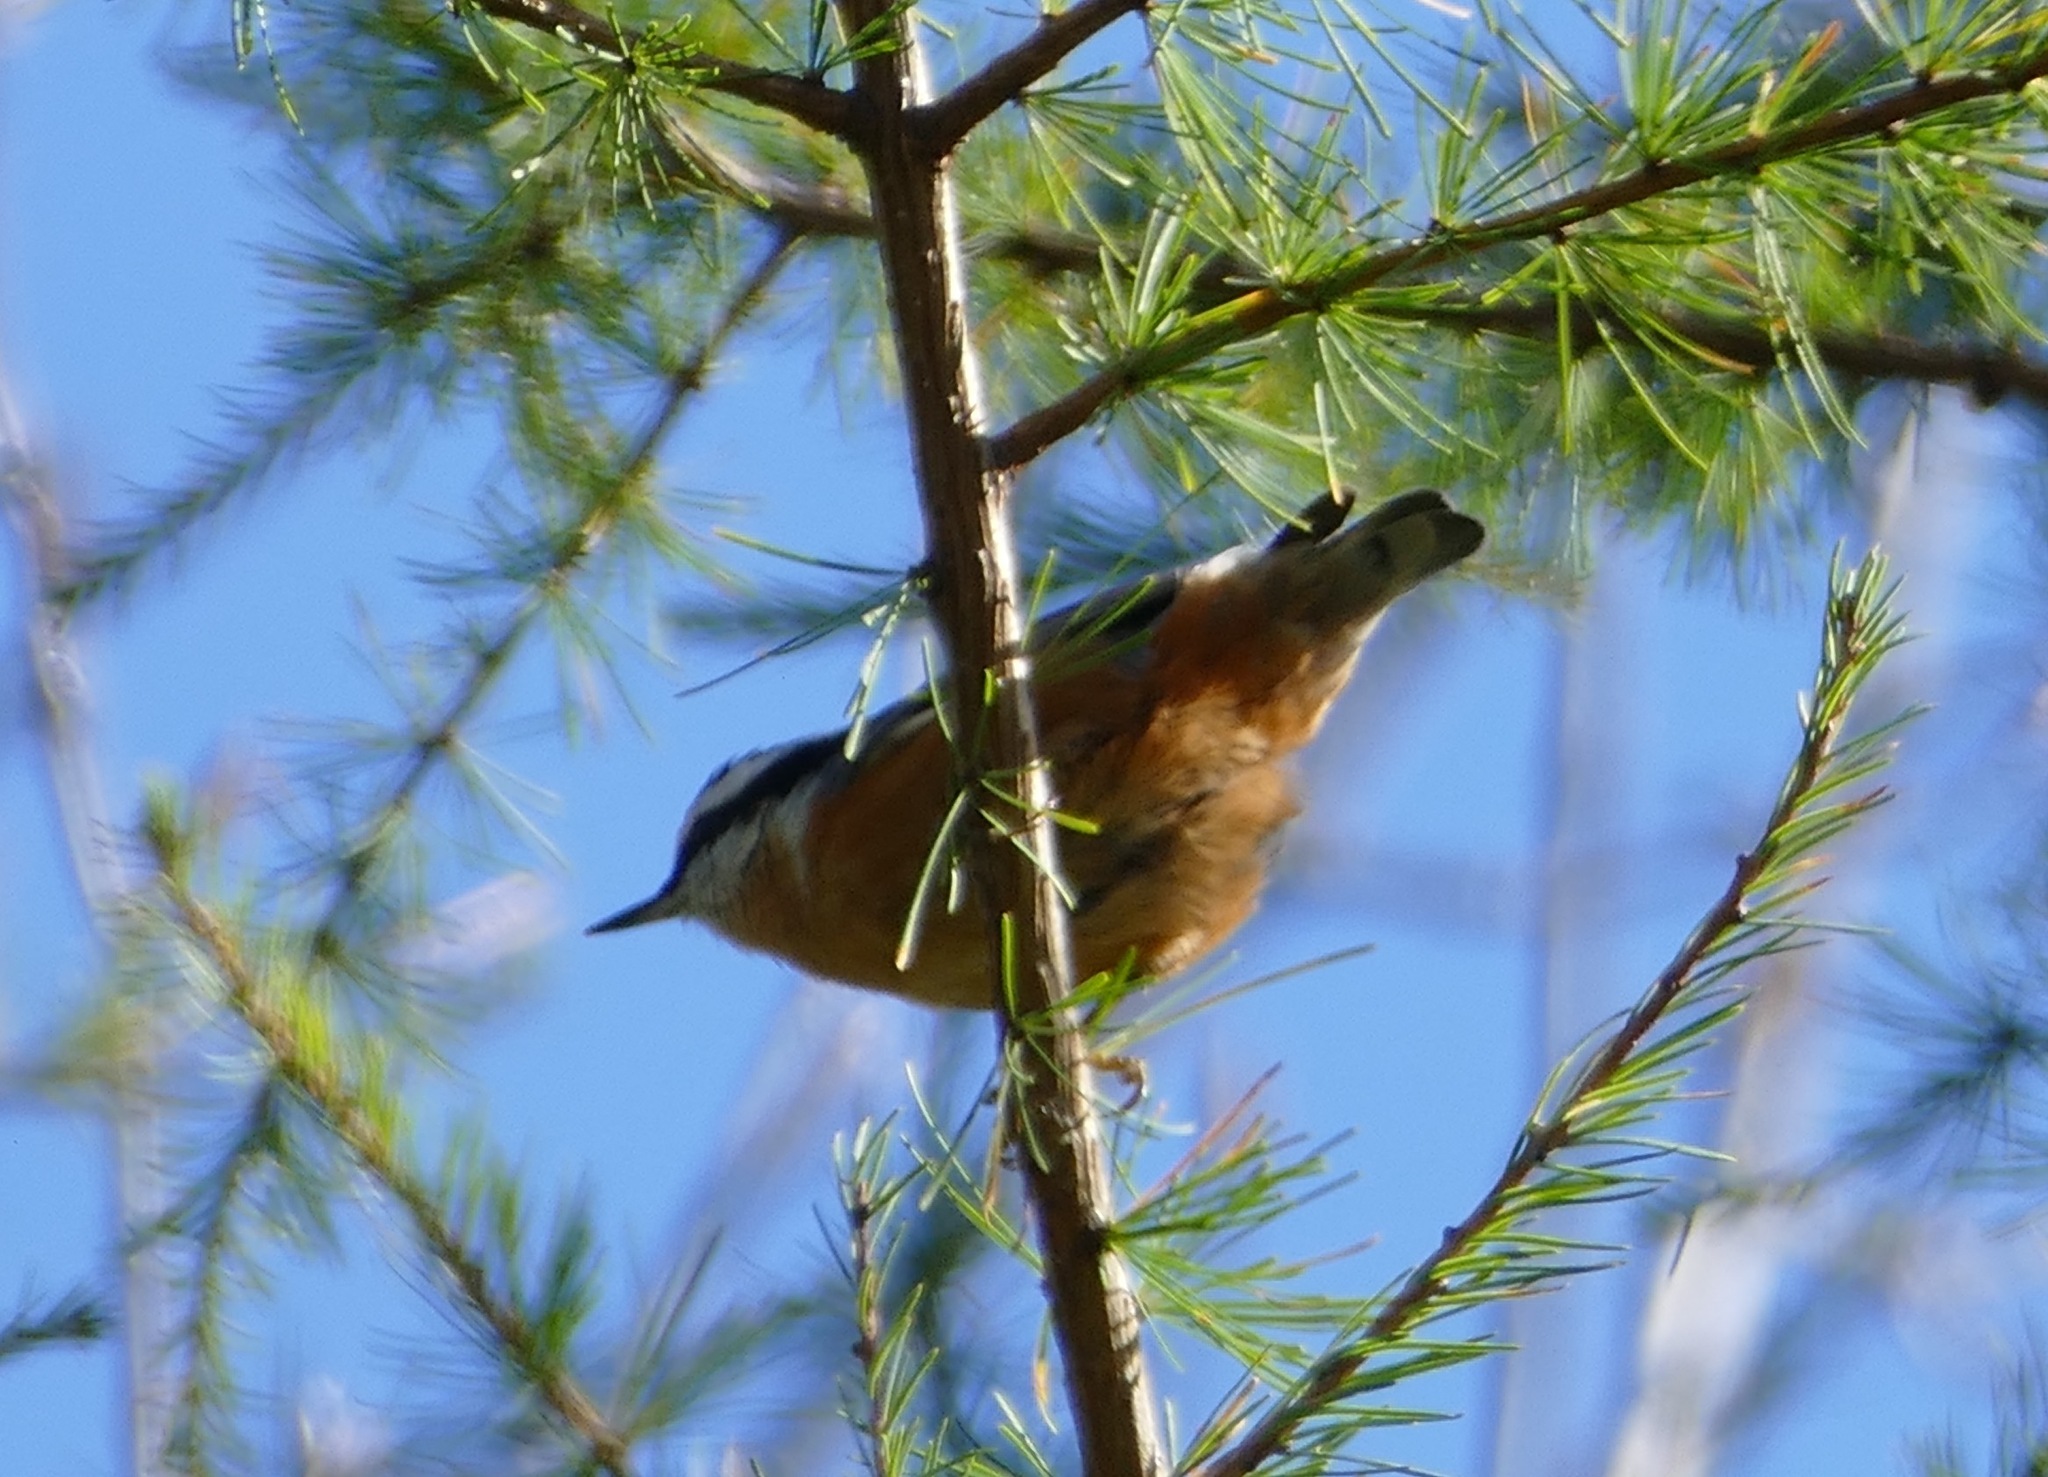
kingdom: Animalia
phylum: Chordata
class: Aves
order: Passeriformes
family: Sittidae
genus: Sitta
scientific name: Sitta canadensis
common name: Red-breasted nuthatch
